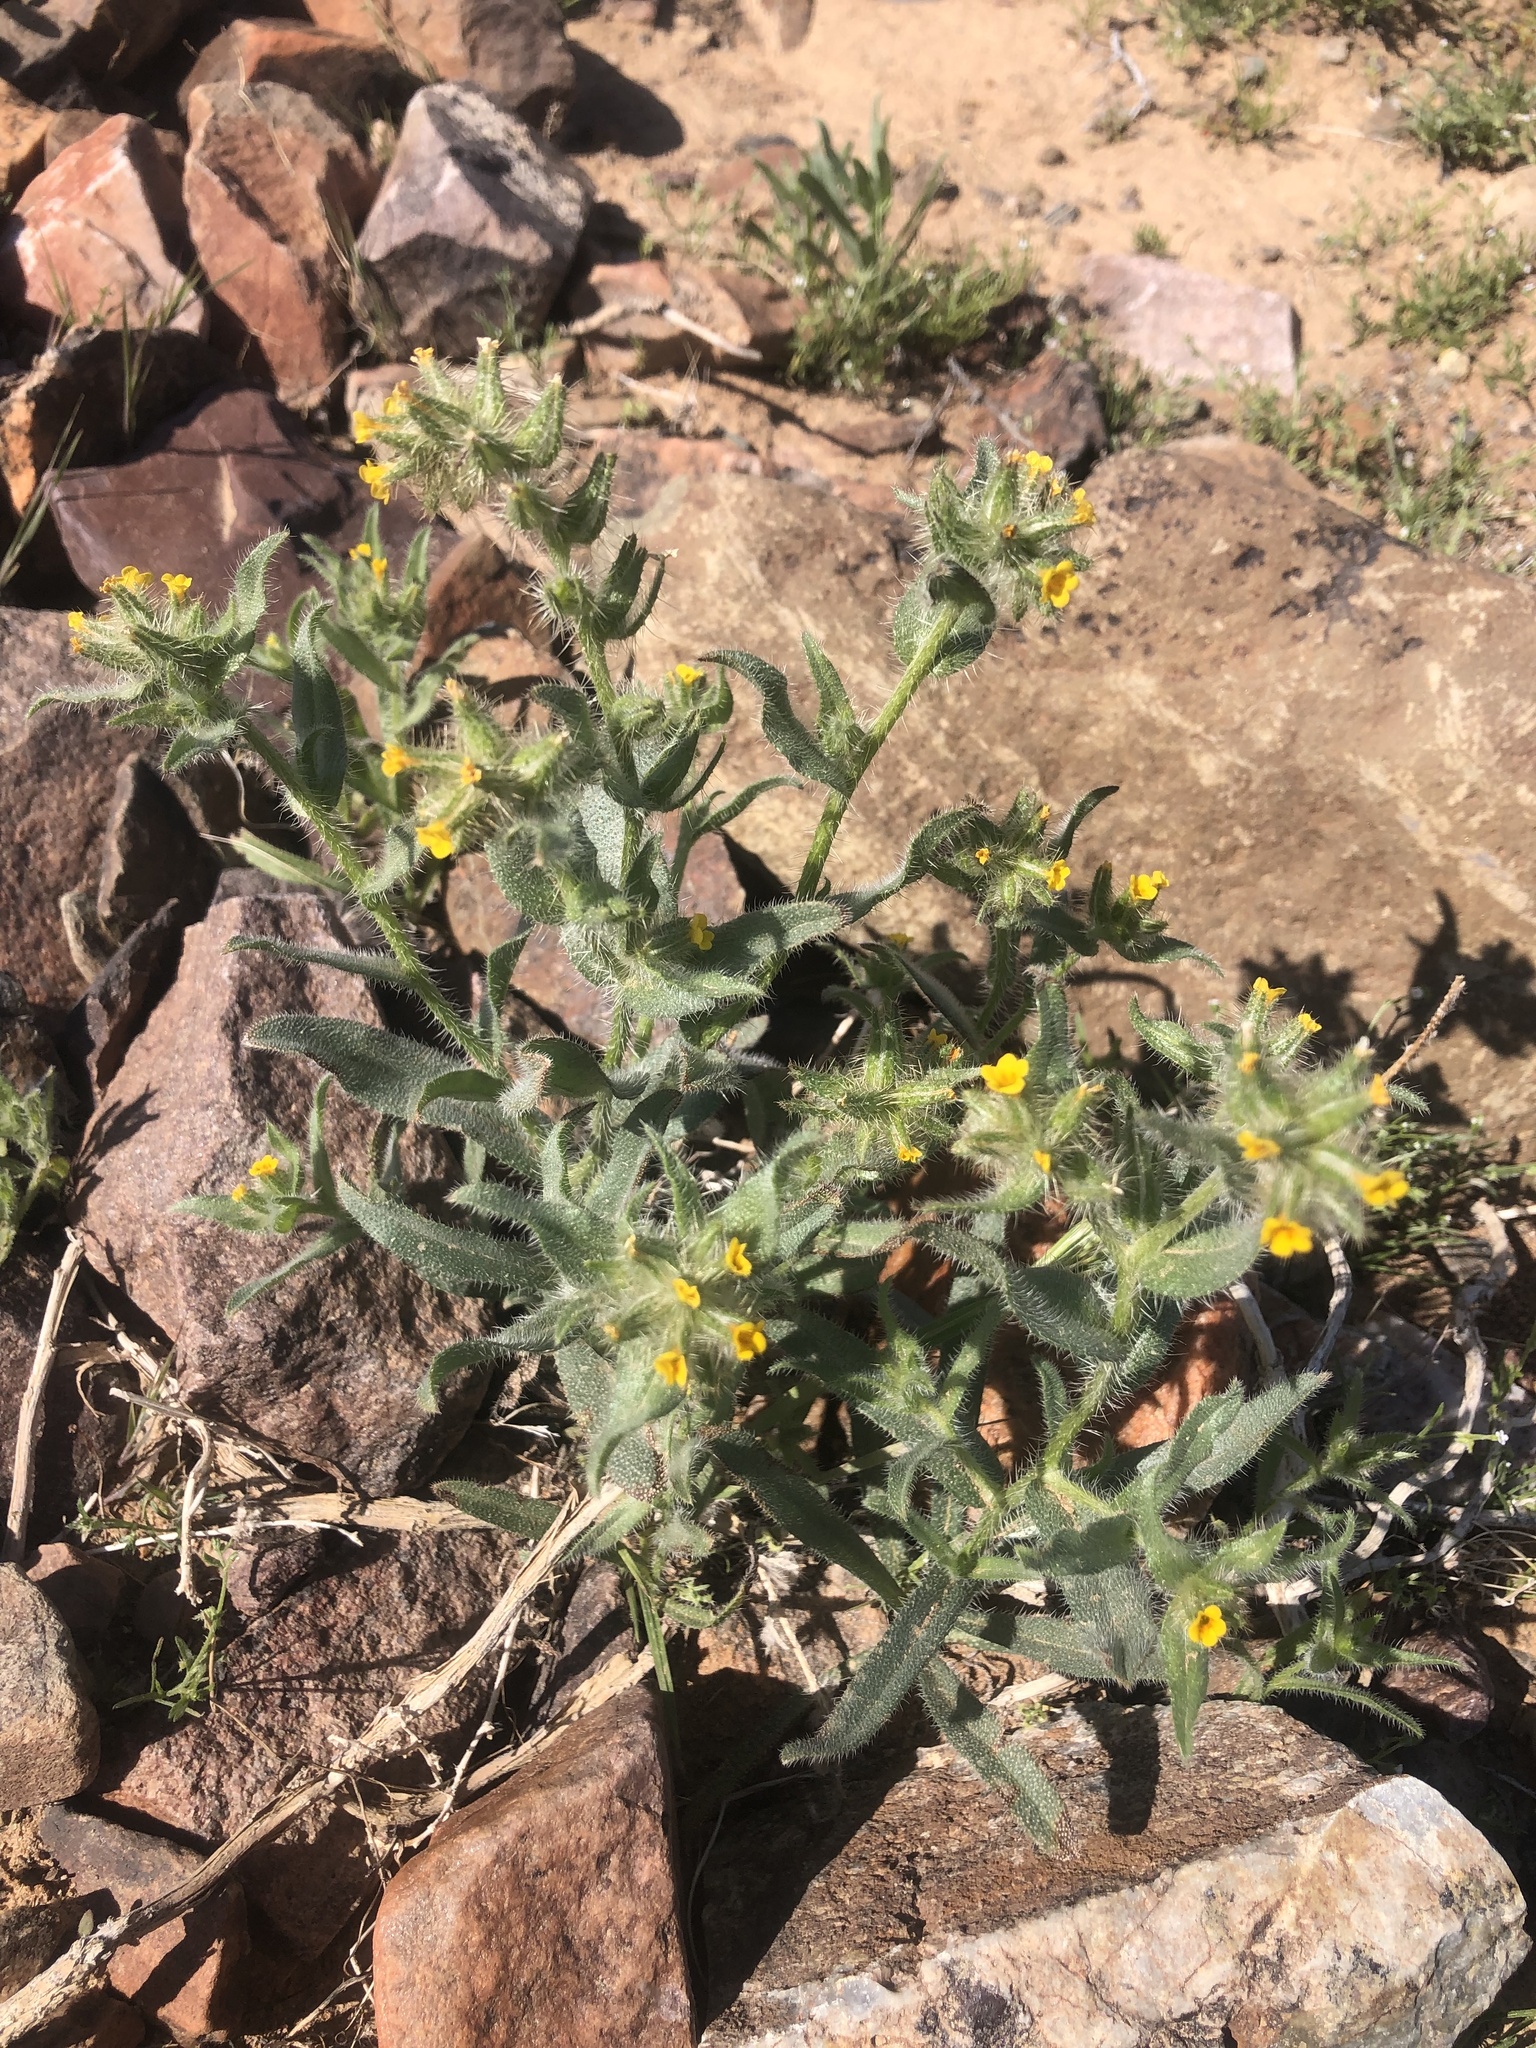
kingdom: Plantae
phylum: Tracheophyta
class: Magnoliopsida
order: Boraginales
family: Boraginaceae
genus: Amsinckia
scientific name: Amsinckia tessellata
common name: Tessellate fiddleneck
